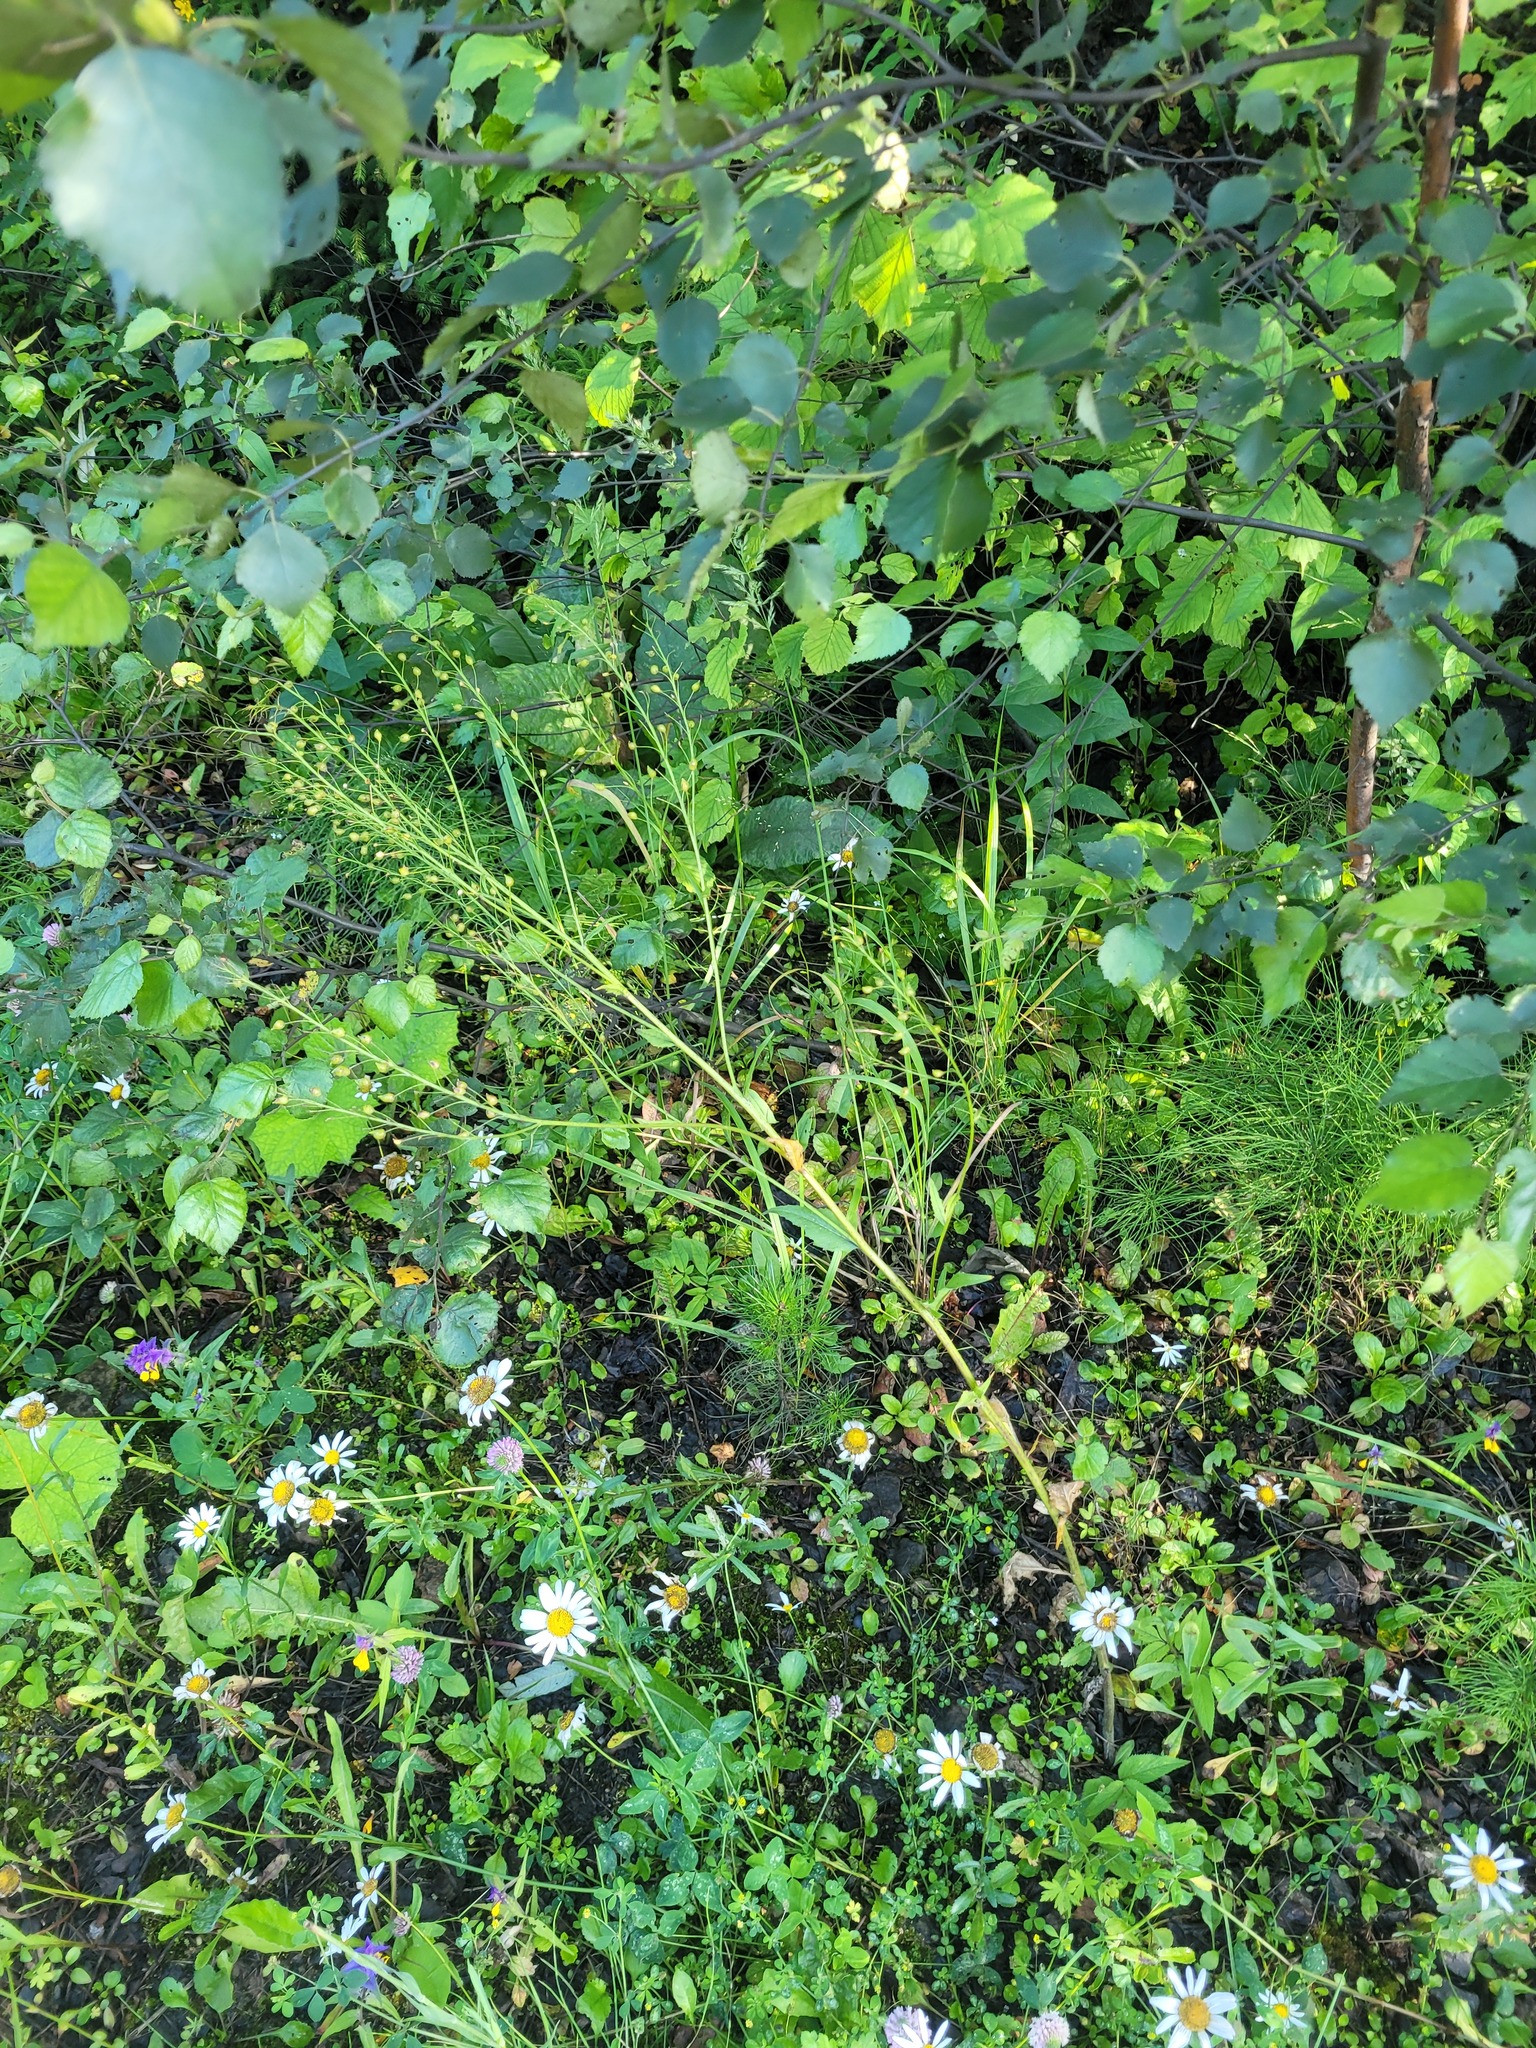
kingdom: Plantae
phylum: Tracheophyta
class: Magnoliopsida
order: Brassicales
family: Brassicaceae
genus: Bunias
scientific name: Bunias orientalis
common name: Warty-cabbage
